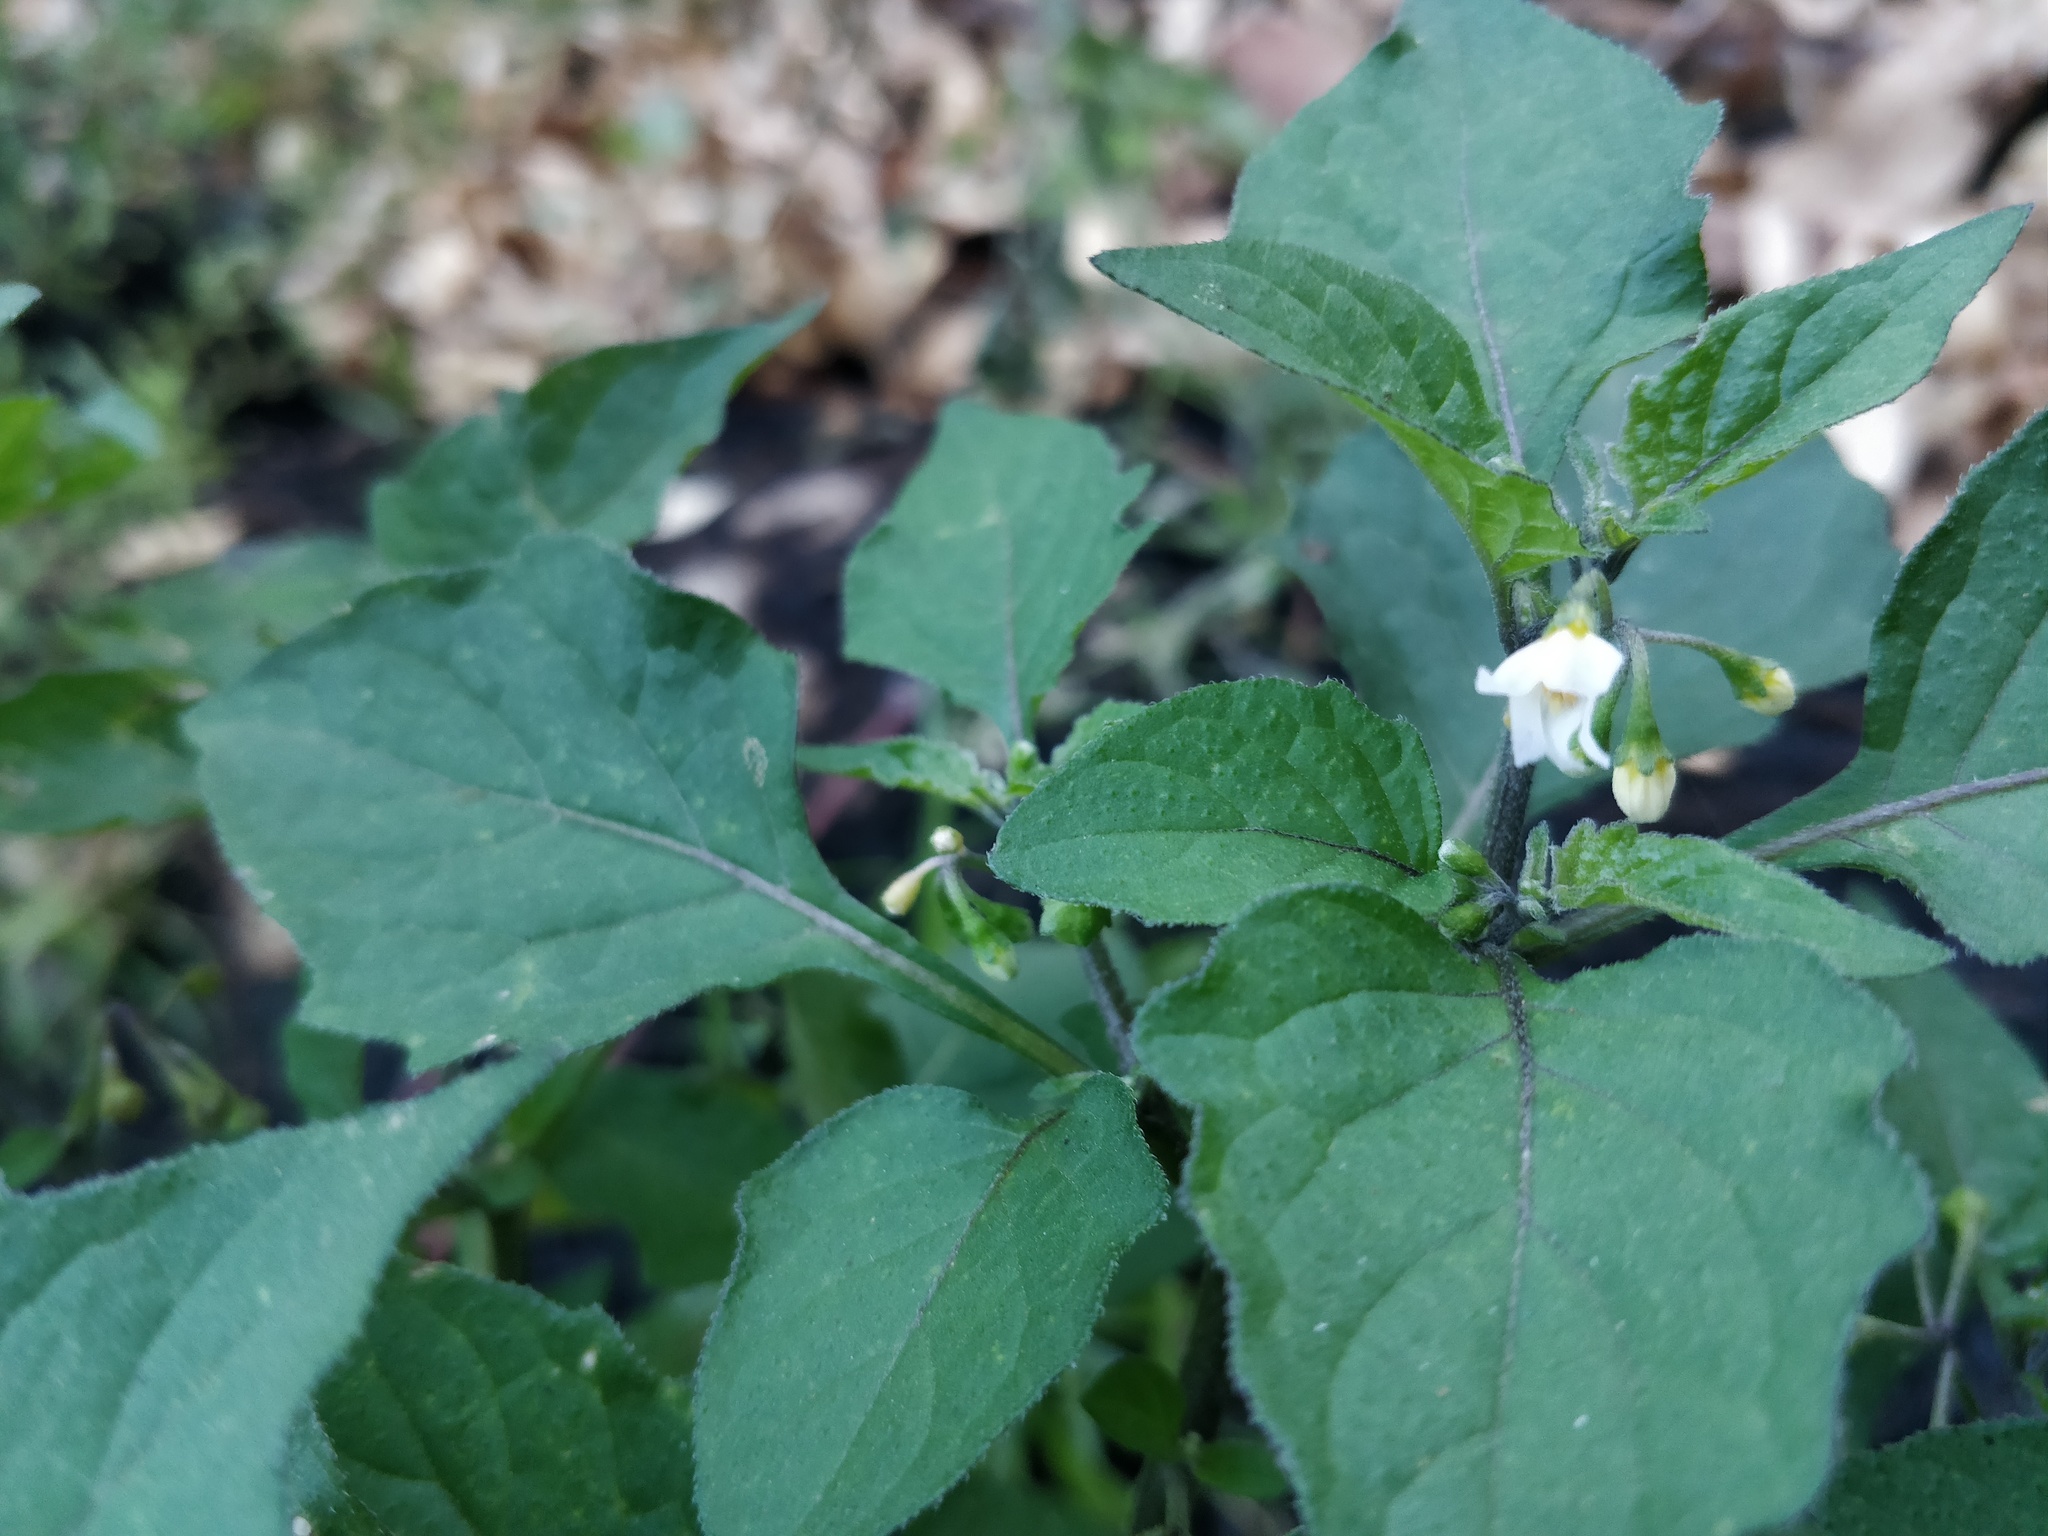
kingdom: Plantae
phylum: Tracheophyta
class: Magnoliopsida
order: Solanales
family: Solanaceae
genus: Solanum
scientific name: Solanum nigrum
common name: Black nightshade
